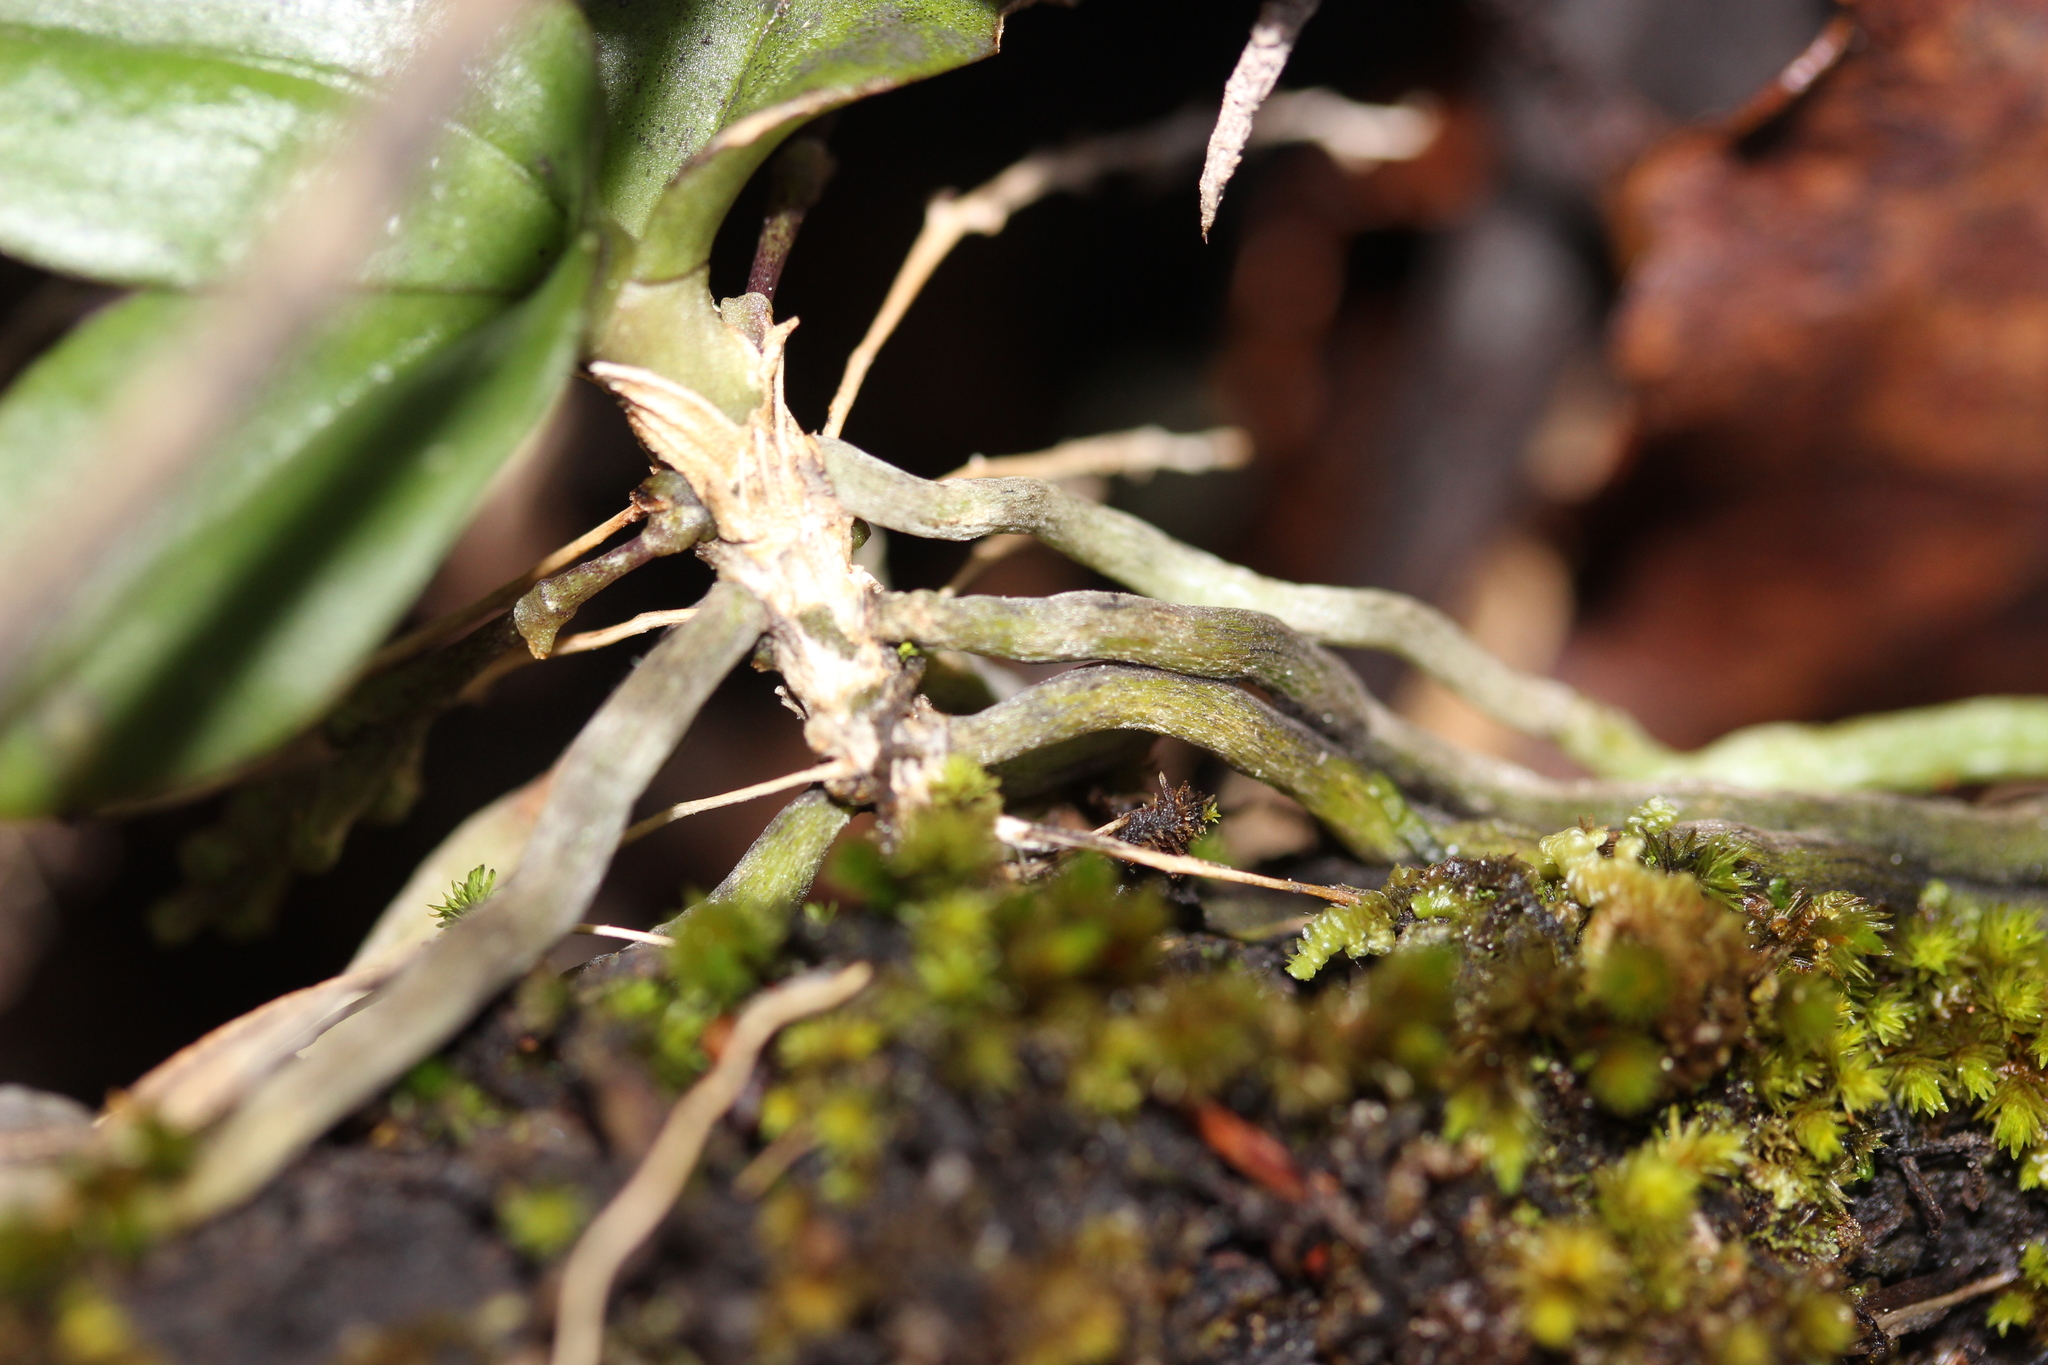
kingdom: Plantae
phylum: Tracheophyta
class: Liliopsida
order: Asparagales
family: Orchidaceae
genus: Drymoanthus
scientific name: Drymoanthus adversus
